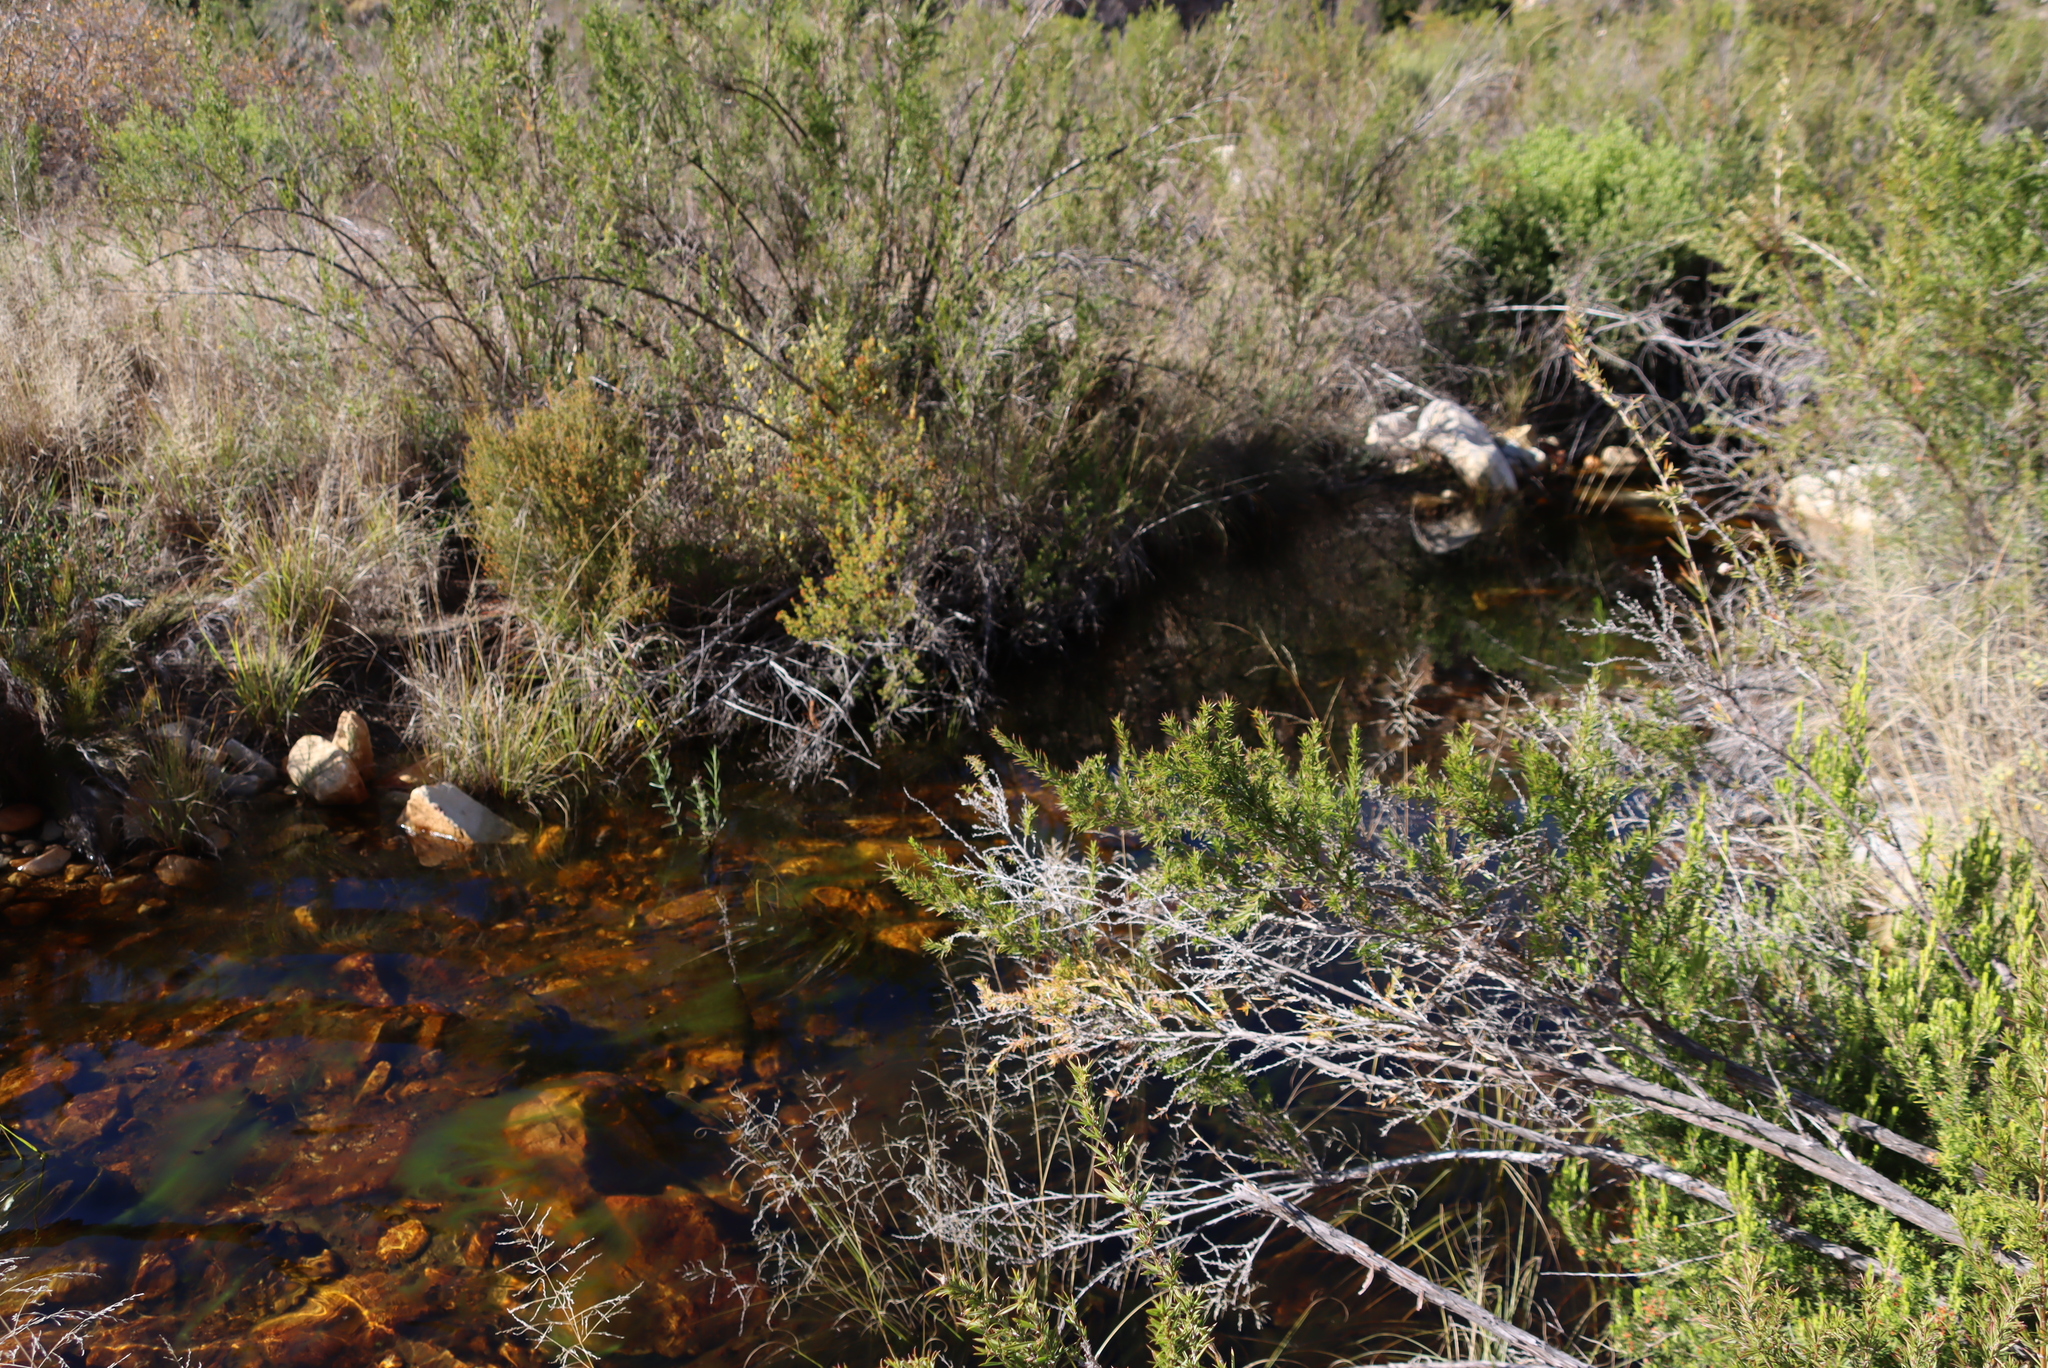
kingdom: Plantae
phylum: Tracheophyta
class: Magnoliopsida
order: Ericales
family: Ericaceae
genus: Erica
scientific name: Erica caffra
